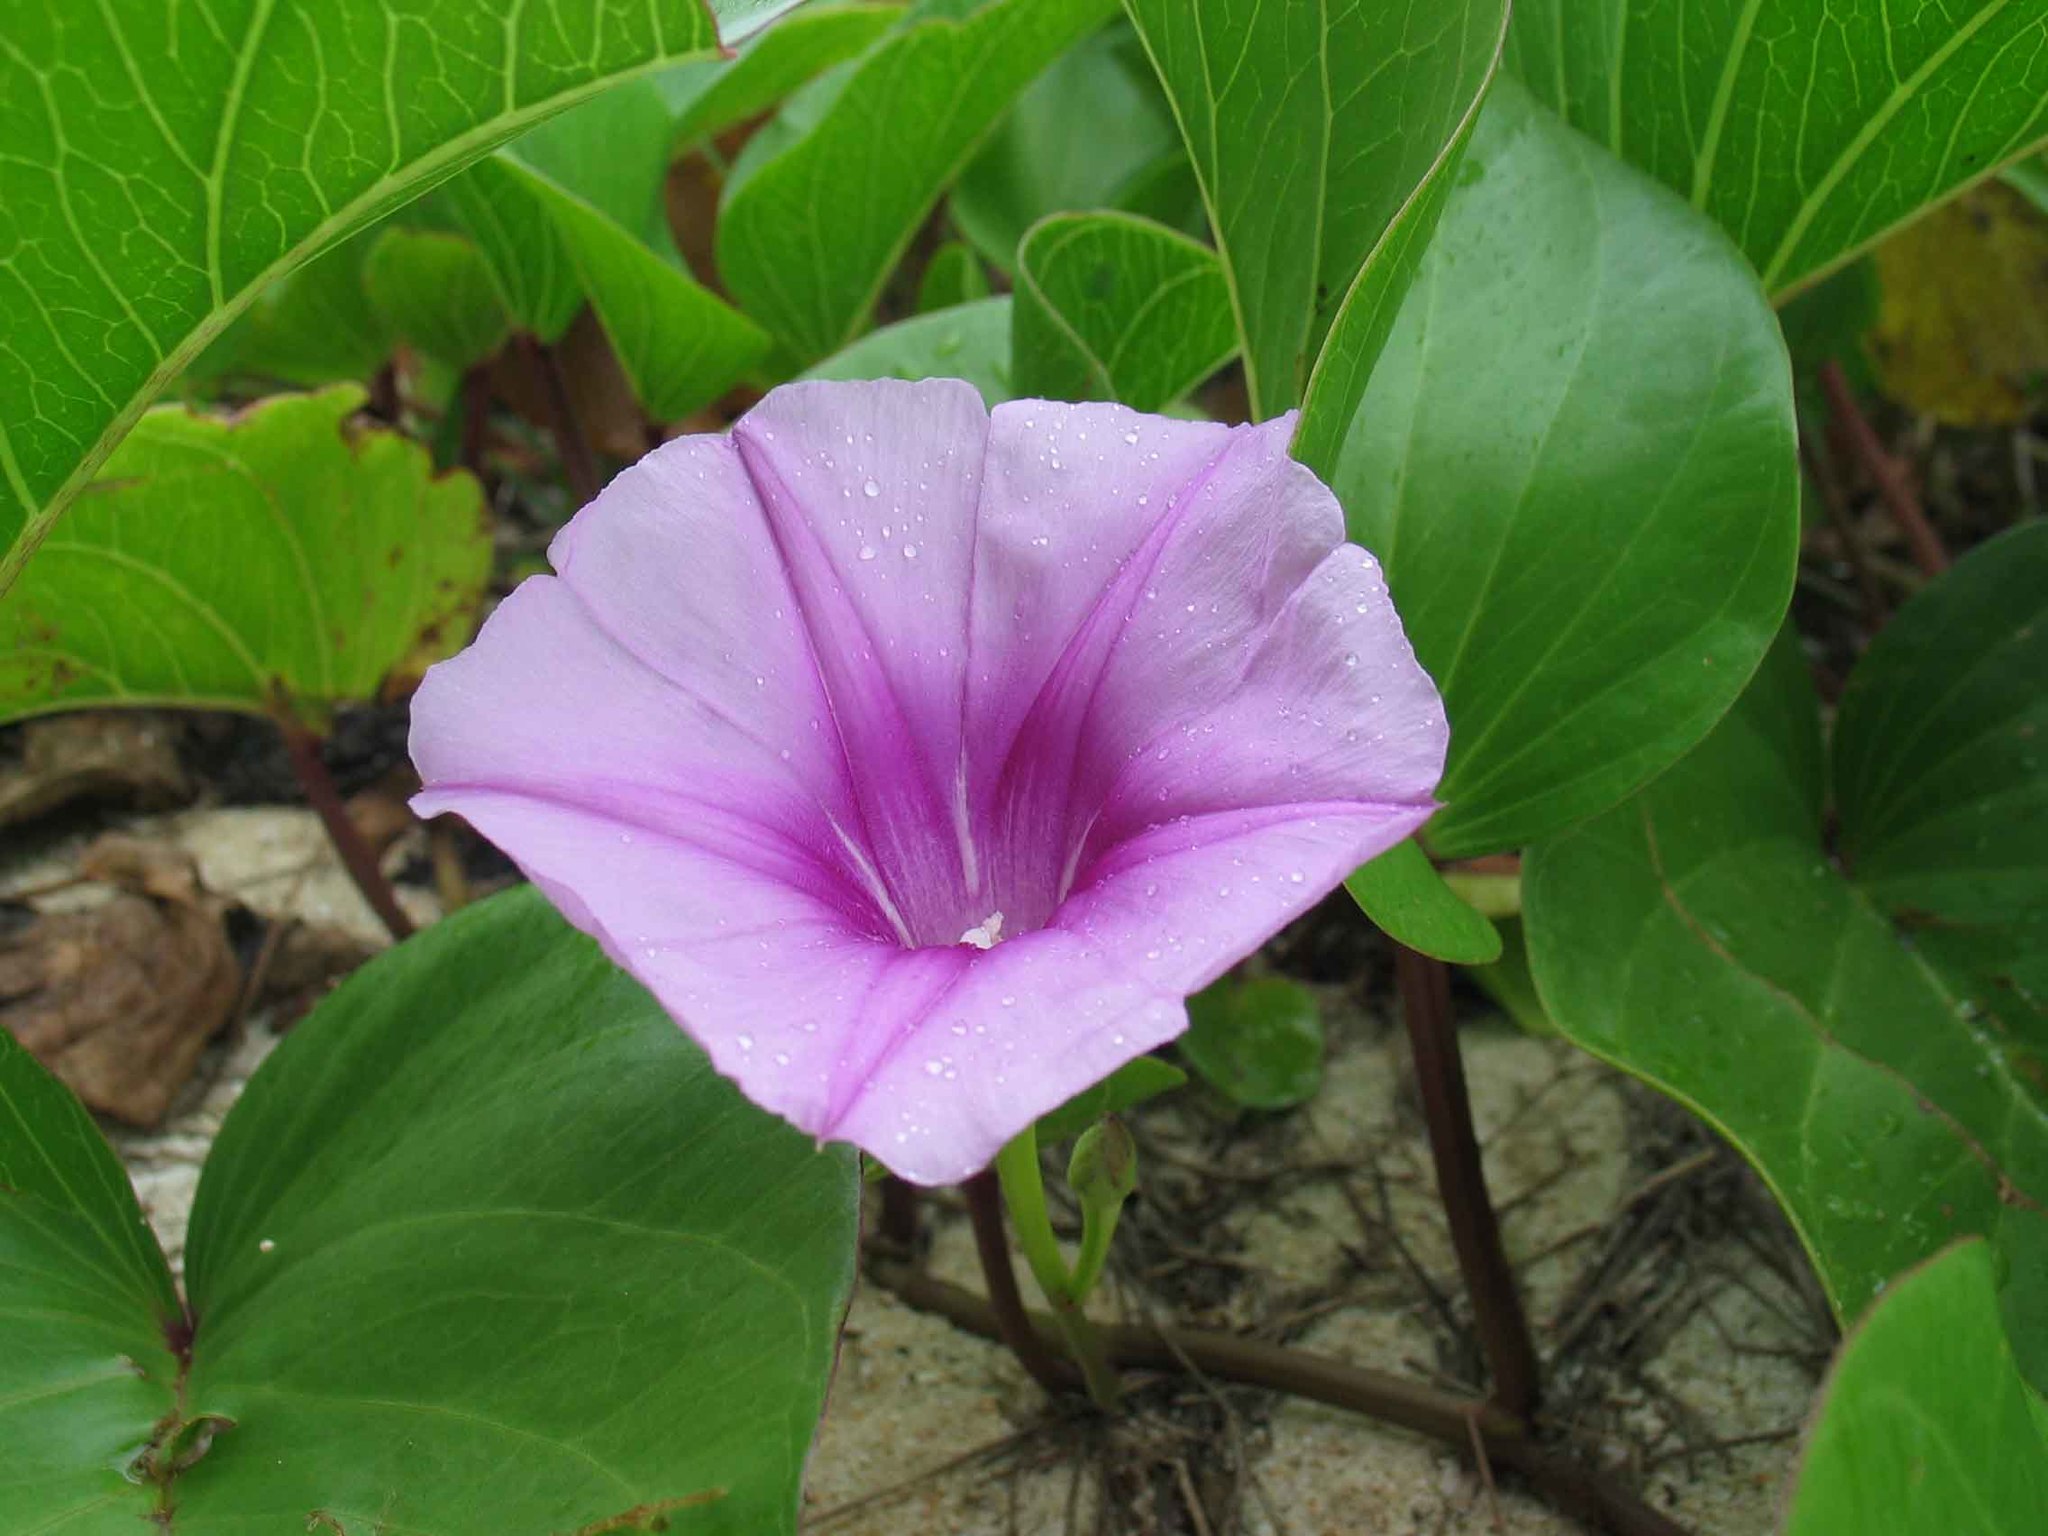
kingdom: Plantae
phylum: Tracheophyta
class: Magnoliopsida
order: Solanales
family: Convolvulaceae
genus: Ipomoea
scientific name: Ipomoea pes-caprae
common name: Beach morning glory
